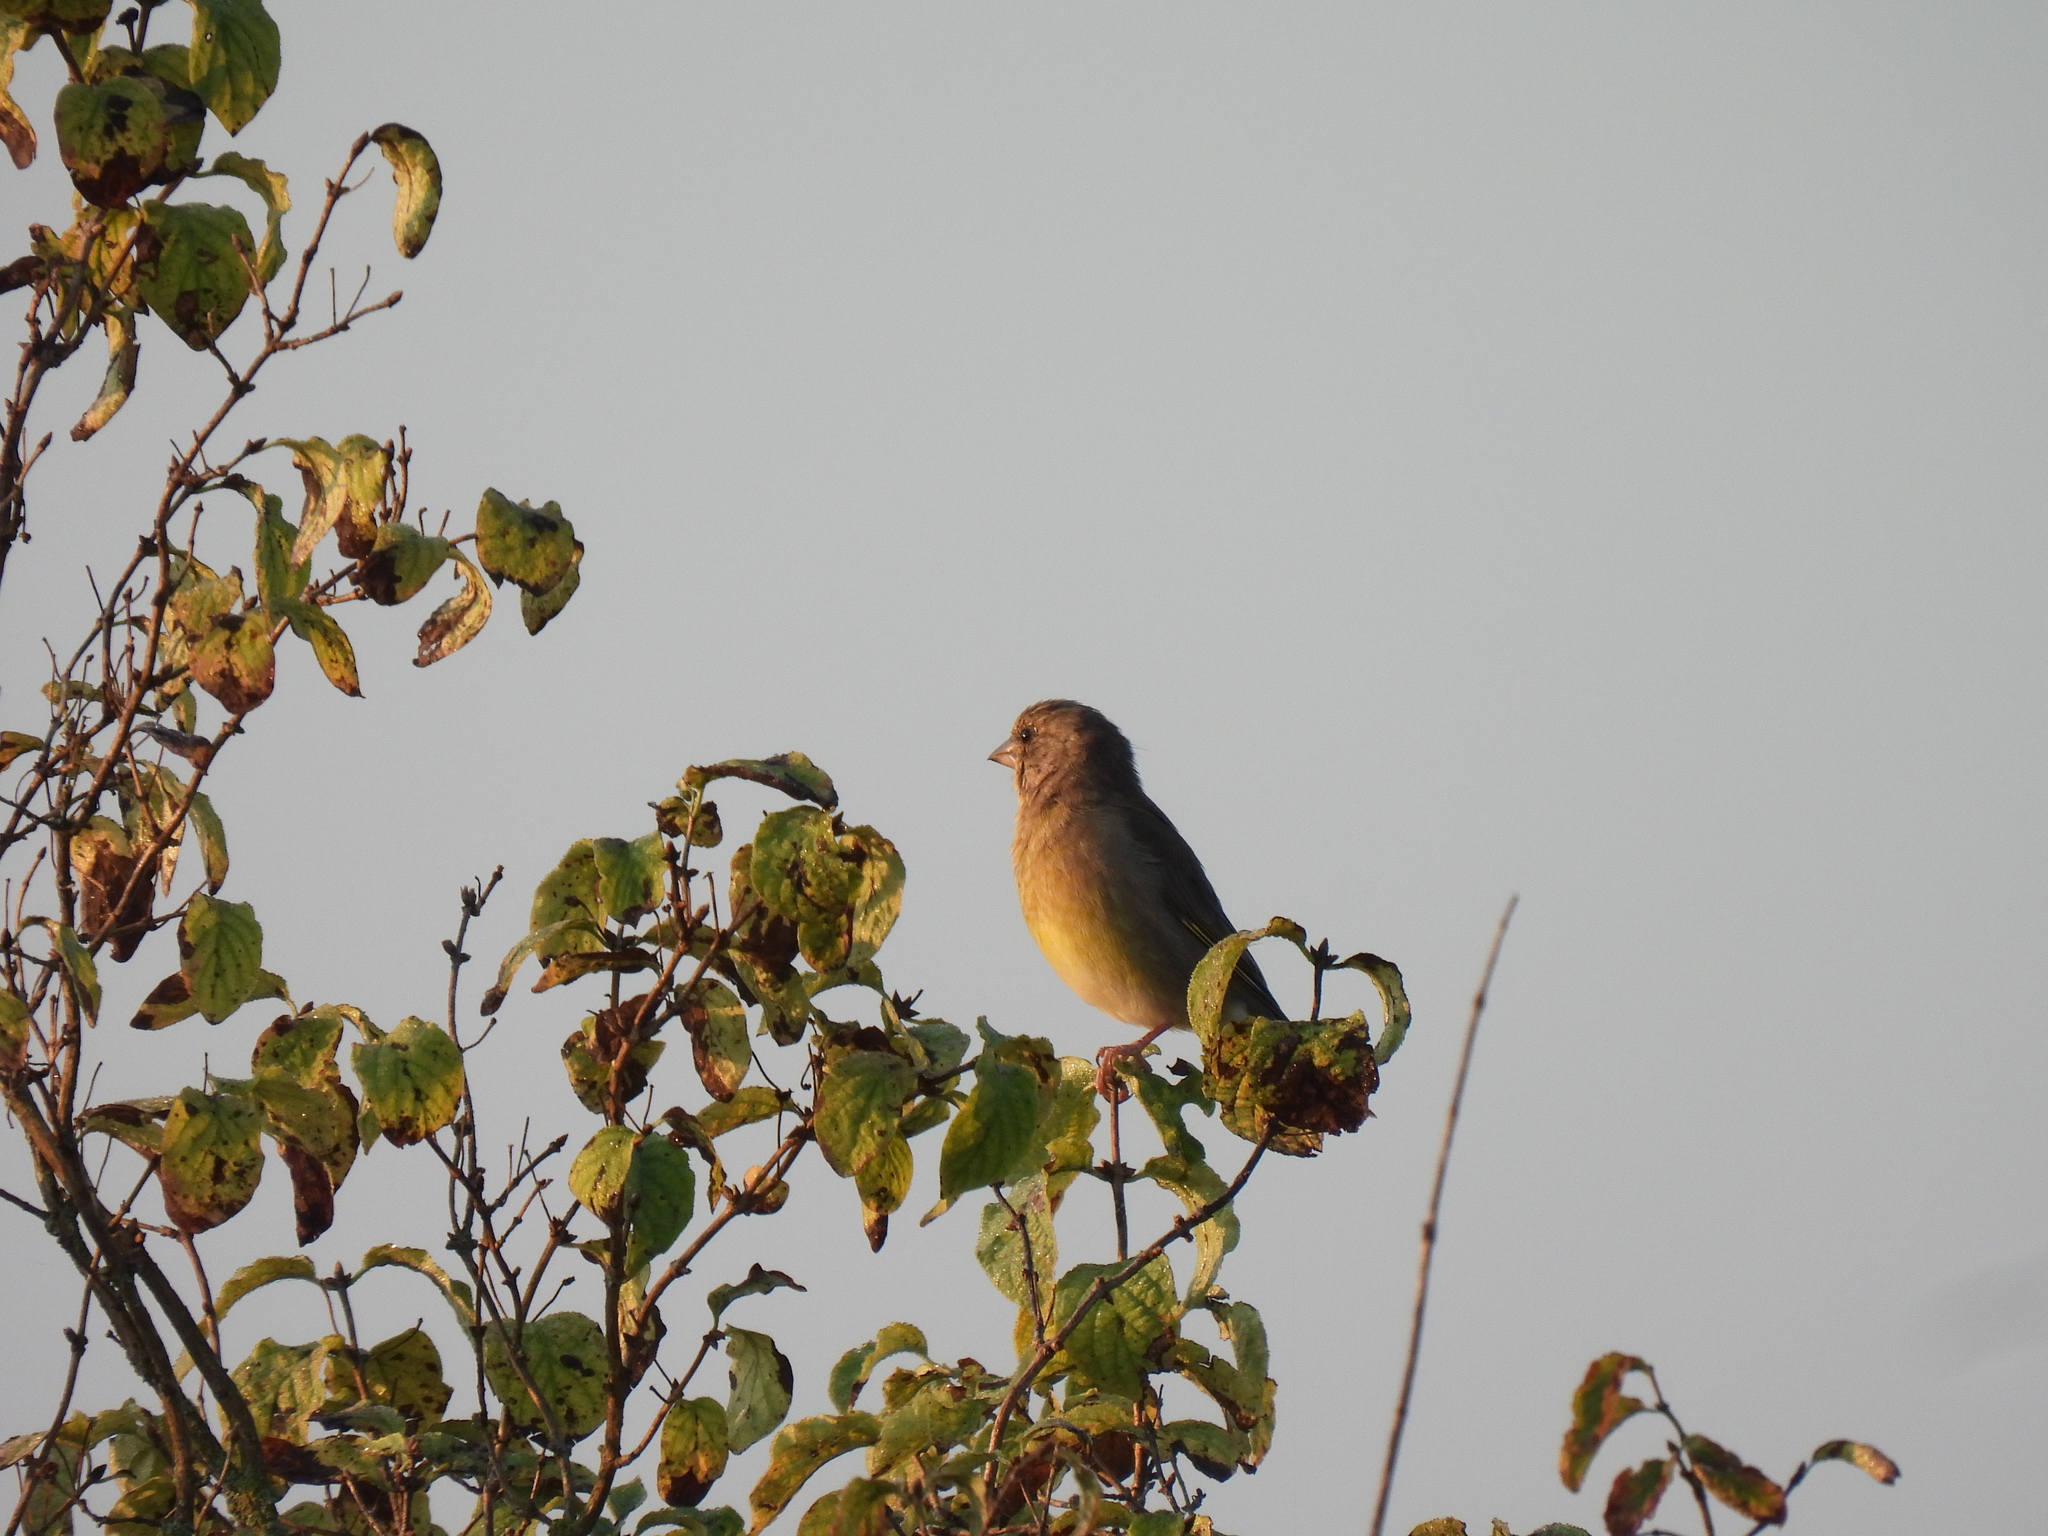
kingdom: Plantae
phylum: Tracheophyta
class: Liliopsida
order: Poales
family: Poaceae
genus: Chloris
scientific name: Chloris chloris
